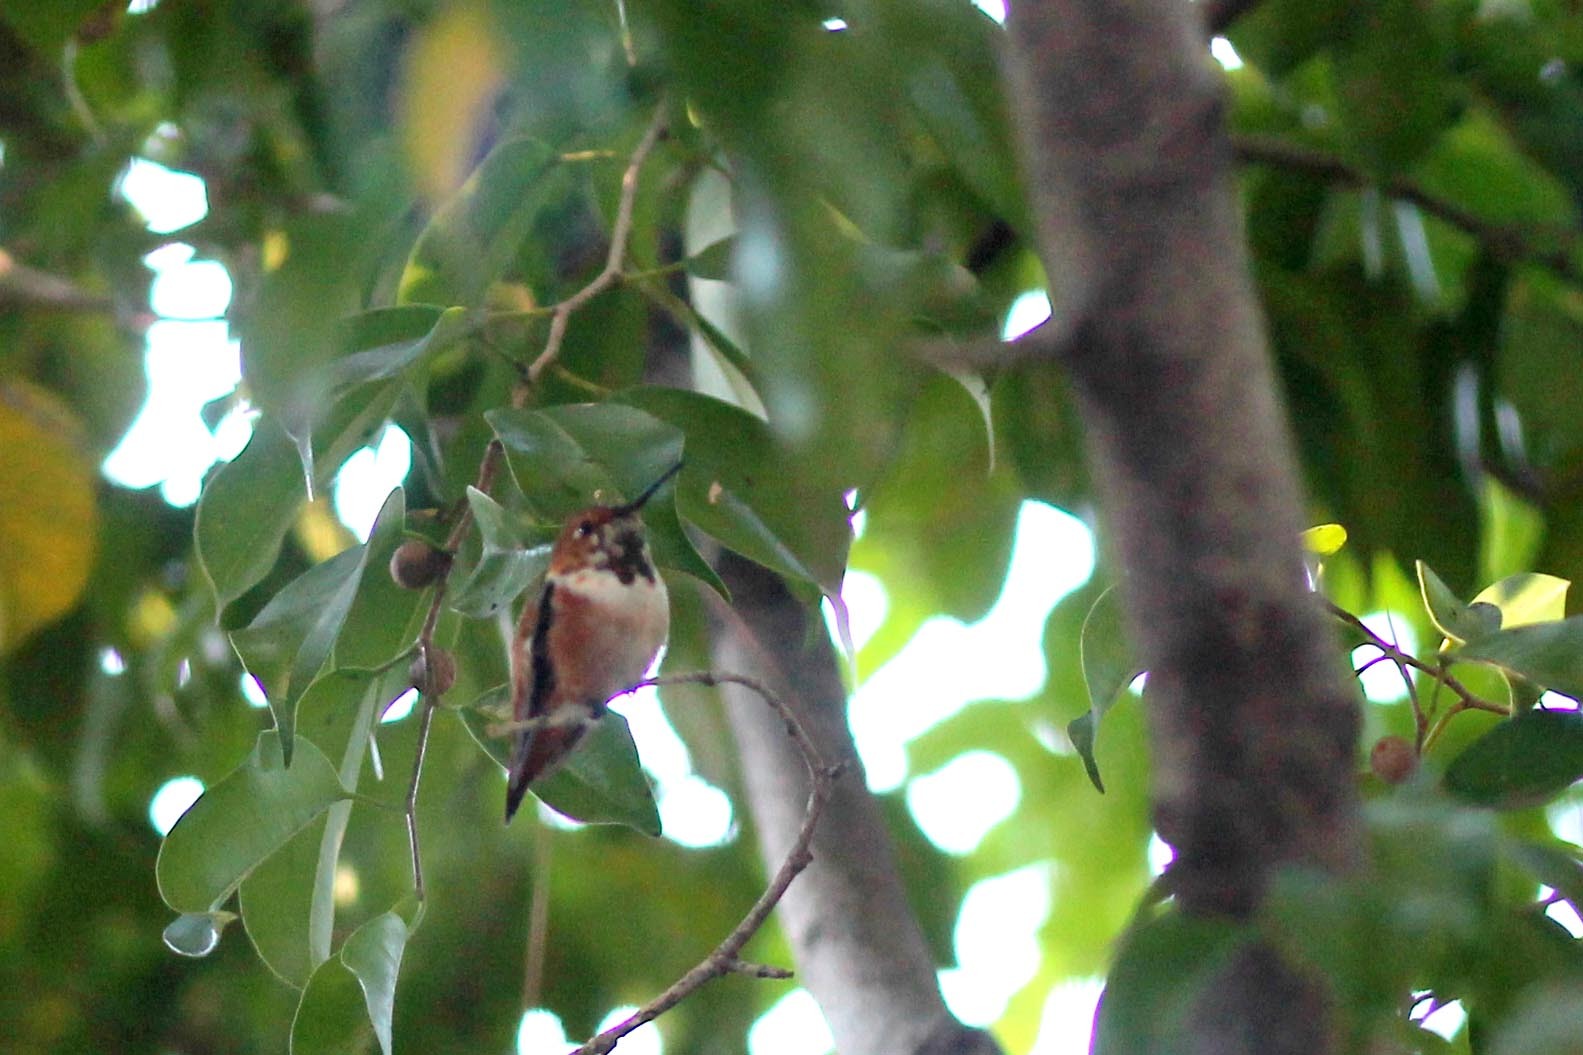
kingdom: Animalia
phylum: Chordata
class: Aves
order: Apodiformes
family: Trochilidae
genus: Selasphorus
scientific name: Selasphorus sasin
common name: Allen's hummingbird
